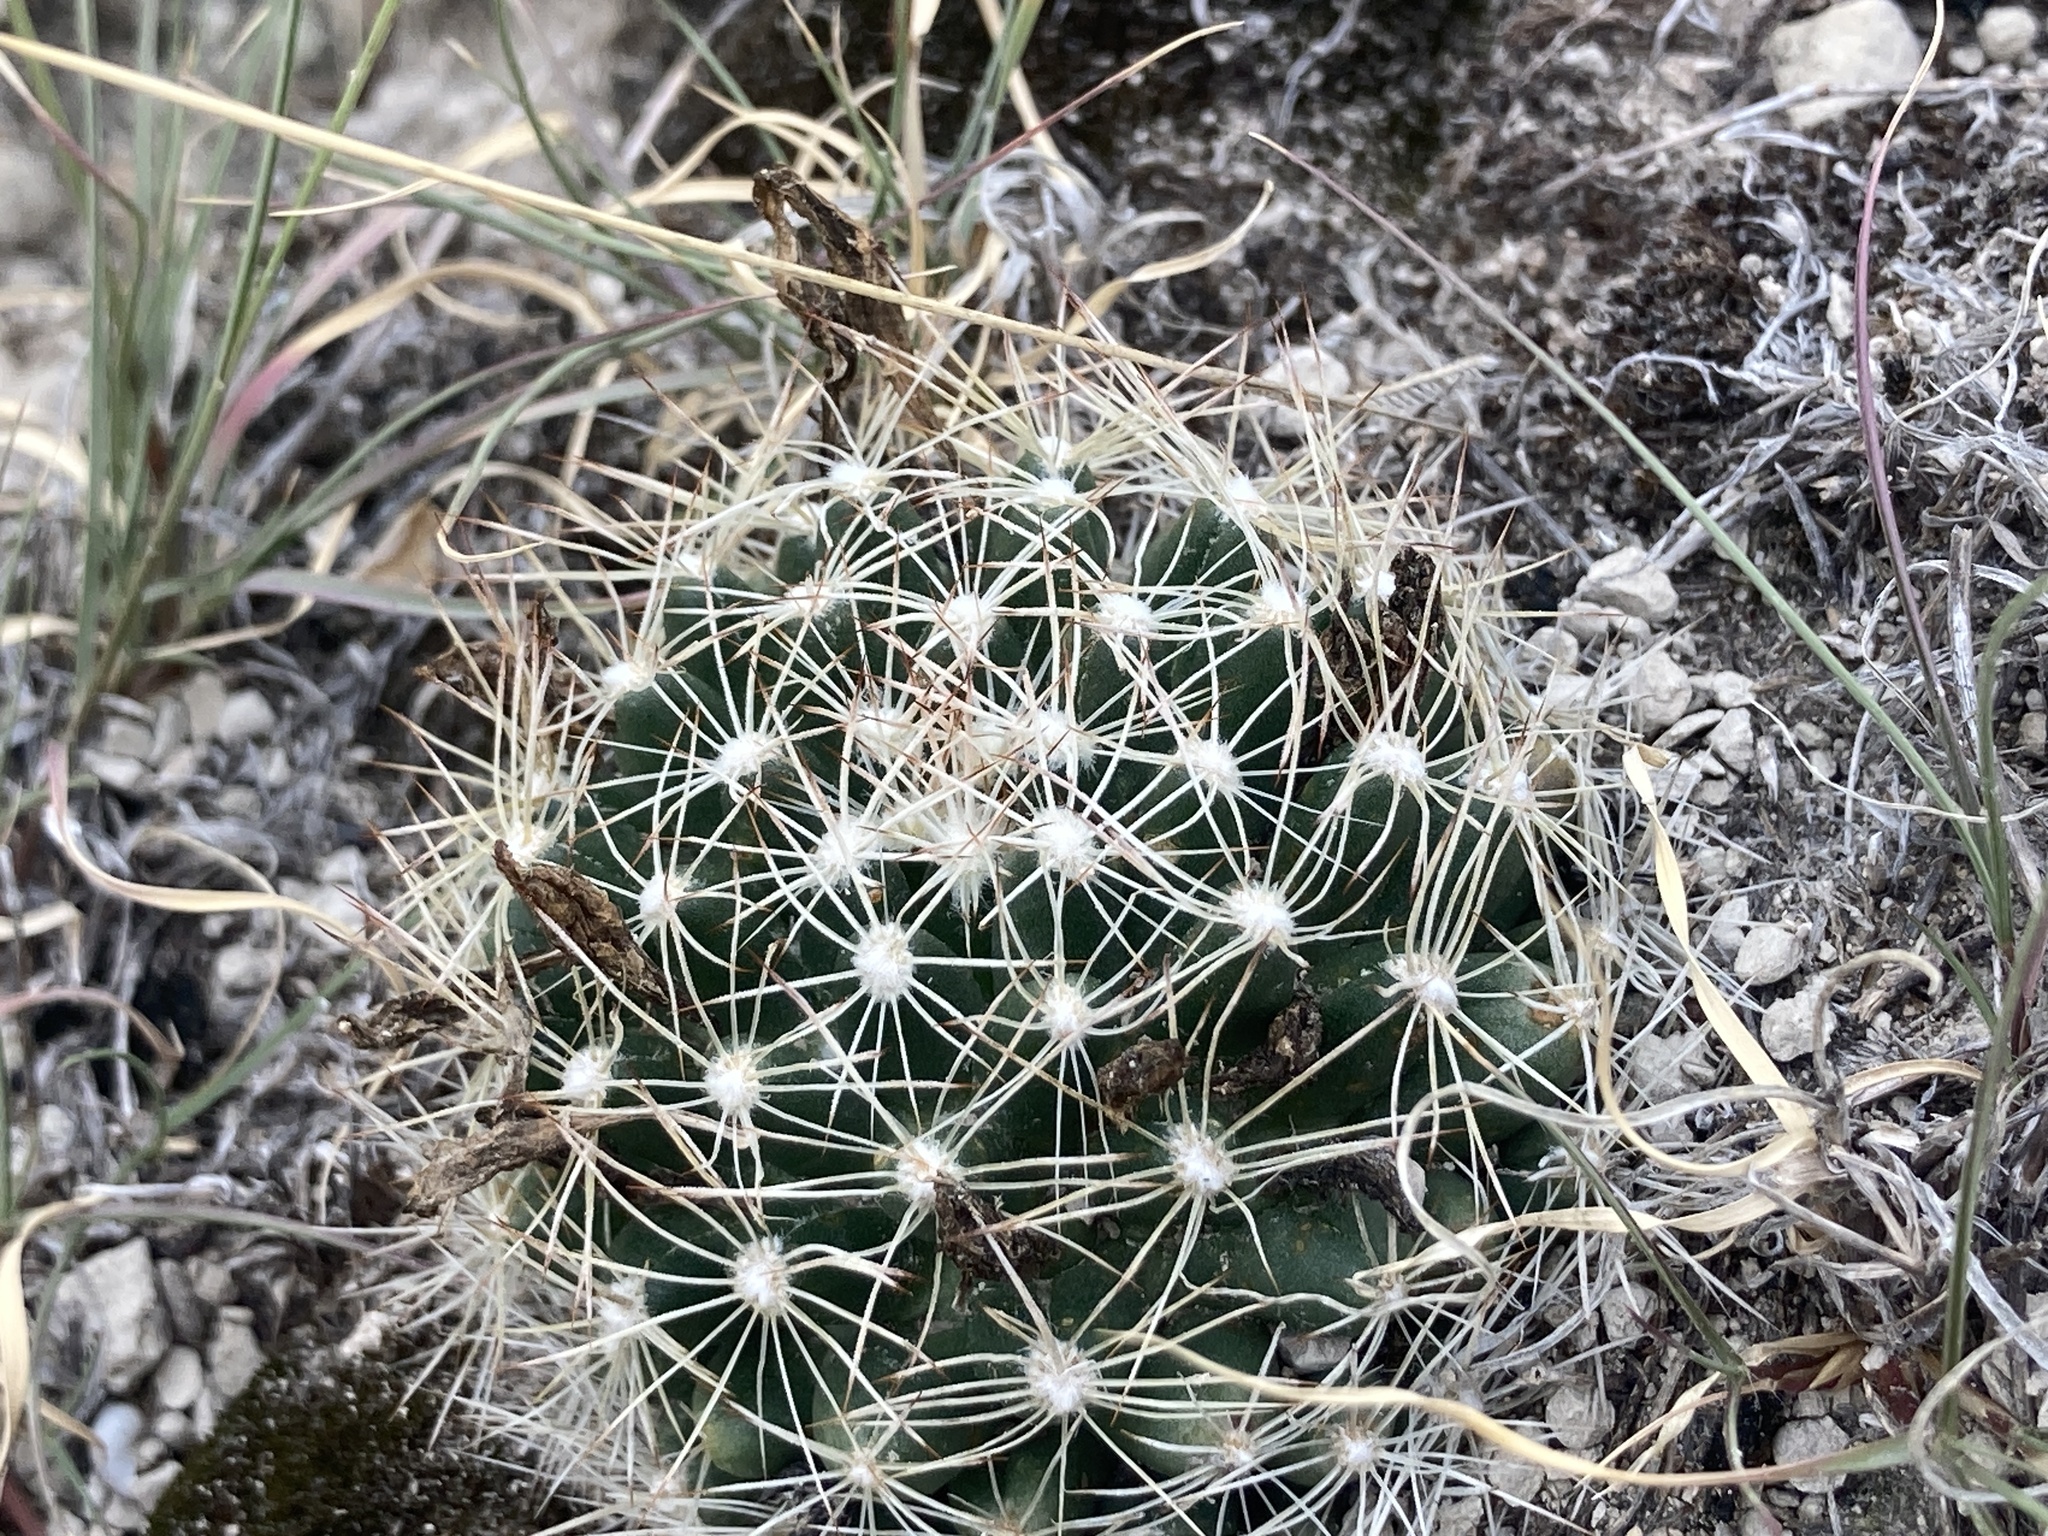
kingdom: Plantae
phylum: Tracheophyta
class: Magnoliopsida
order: Caryophyllales
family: Cactaceae
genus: Pelecyphora
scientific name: Pelecyphora missouriensis
